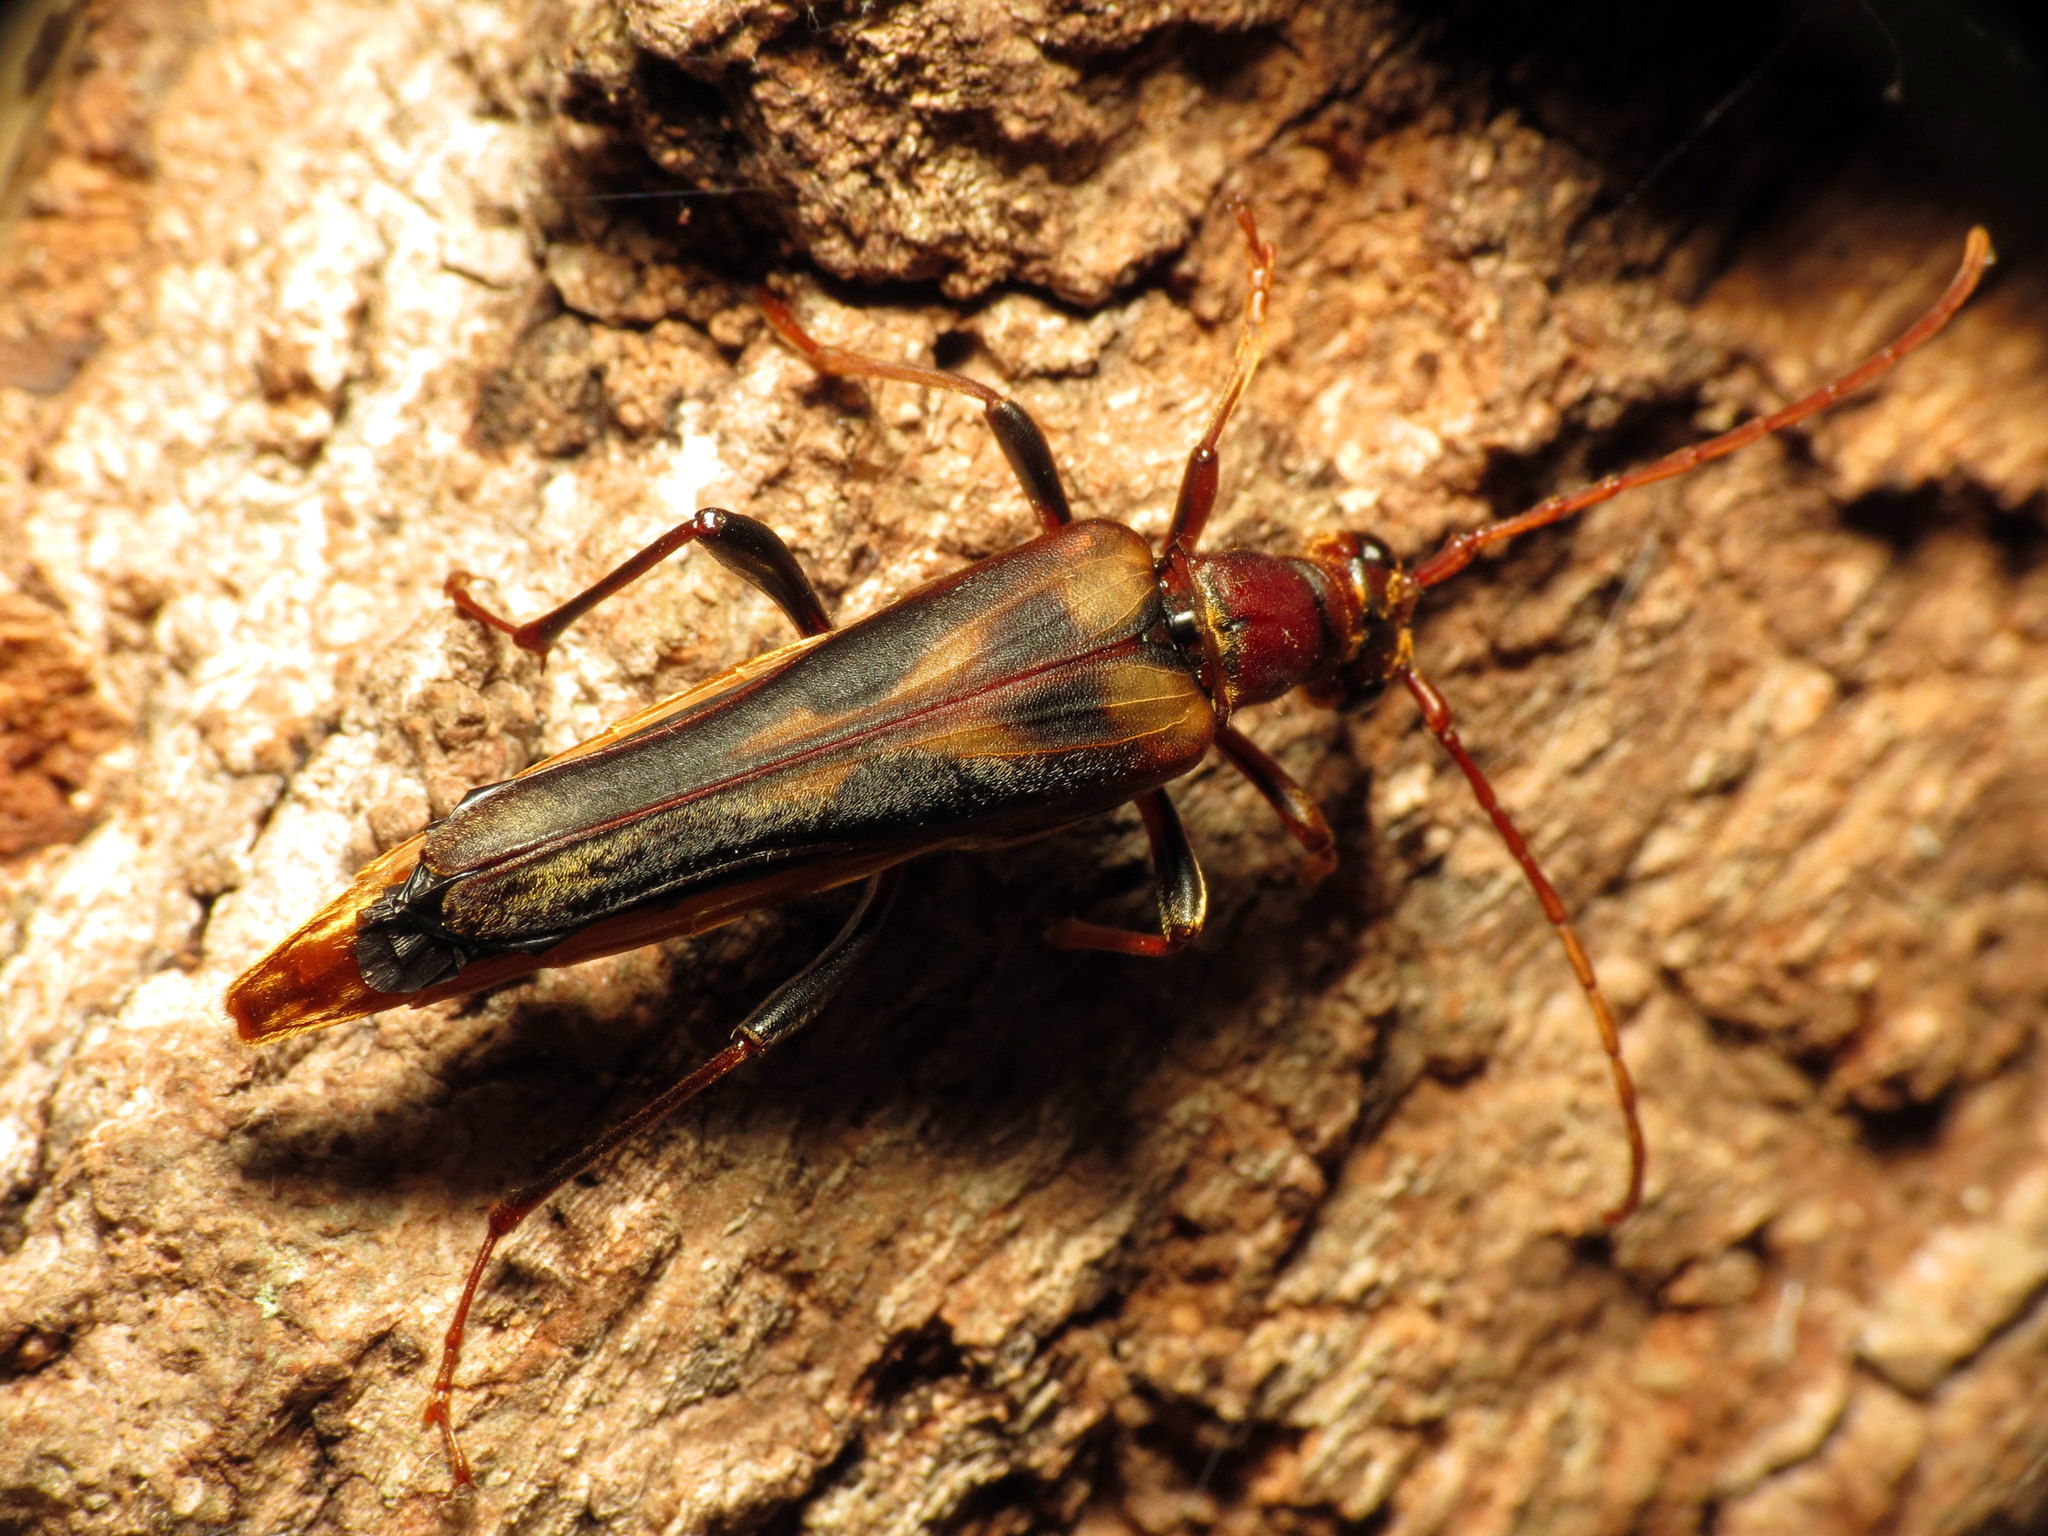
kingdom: Animalia
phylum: Arthropoda
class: Insecta
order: Coleoptera
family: Cerambycidae
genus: Bellamira
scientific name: Bellamira scalaris
